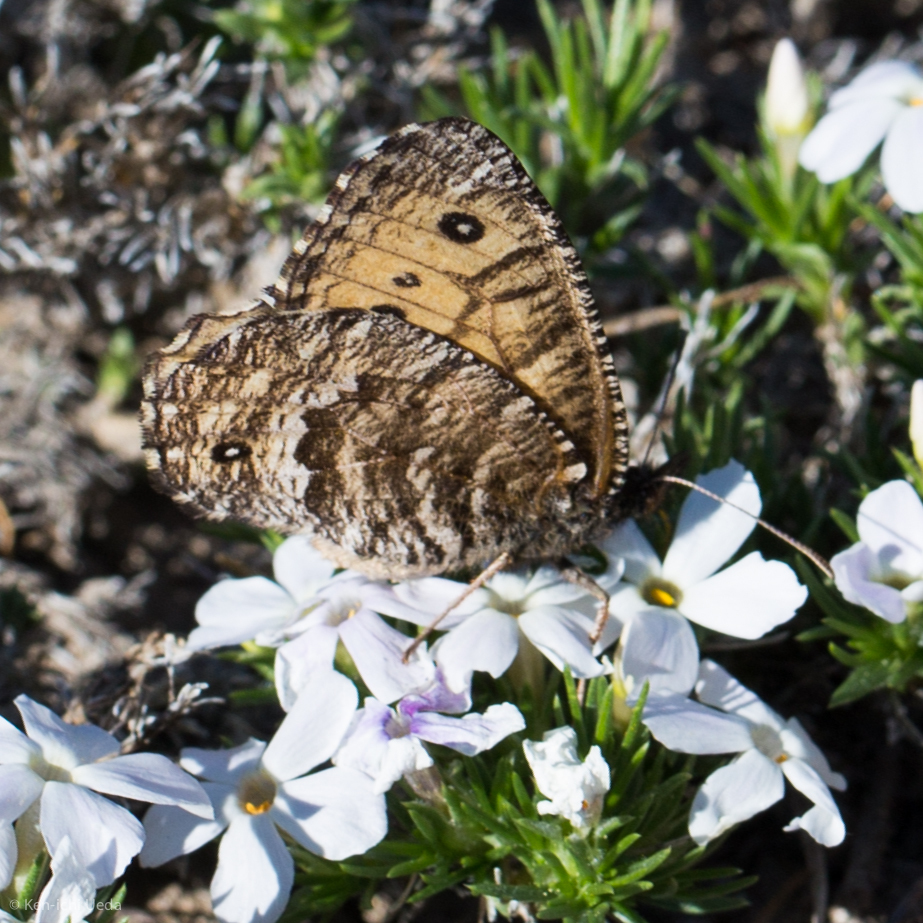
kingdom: Animalia
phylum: Arthropoda
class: Insecta
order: Lepidoptera
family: Nymphalidae
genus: Oeneis
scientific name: Oeneis chryxus
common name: Chryxus arctic
